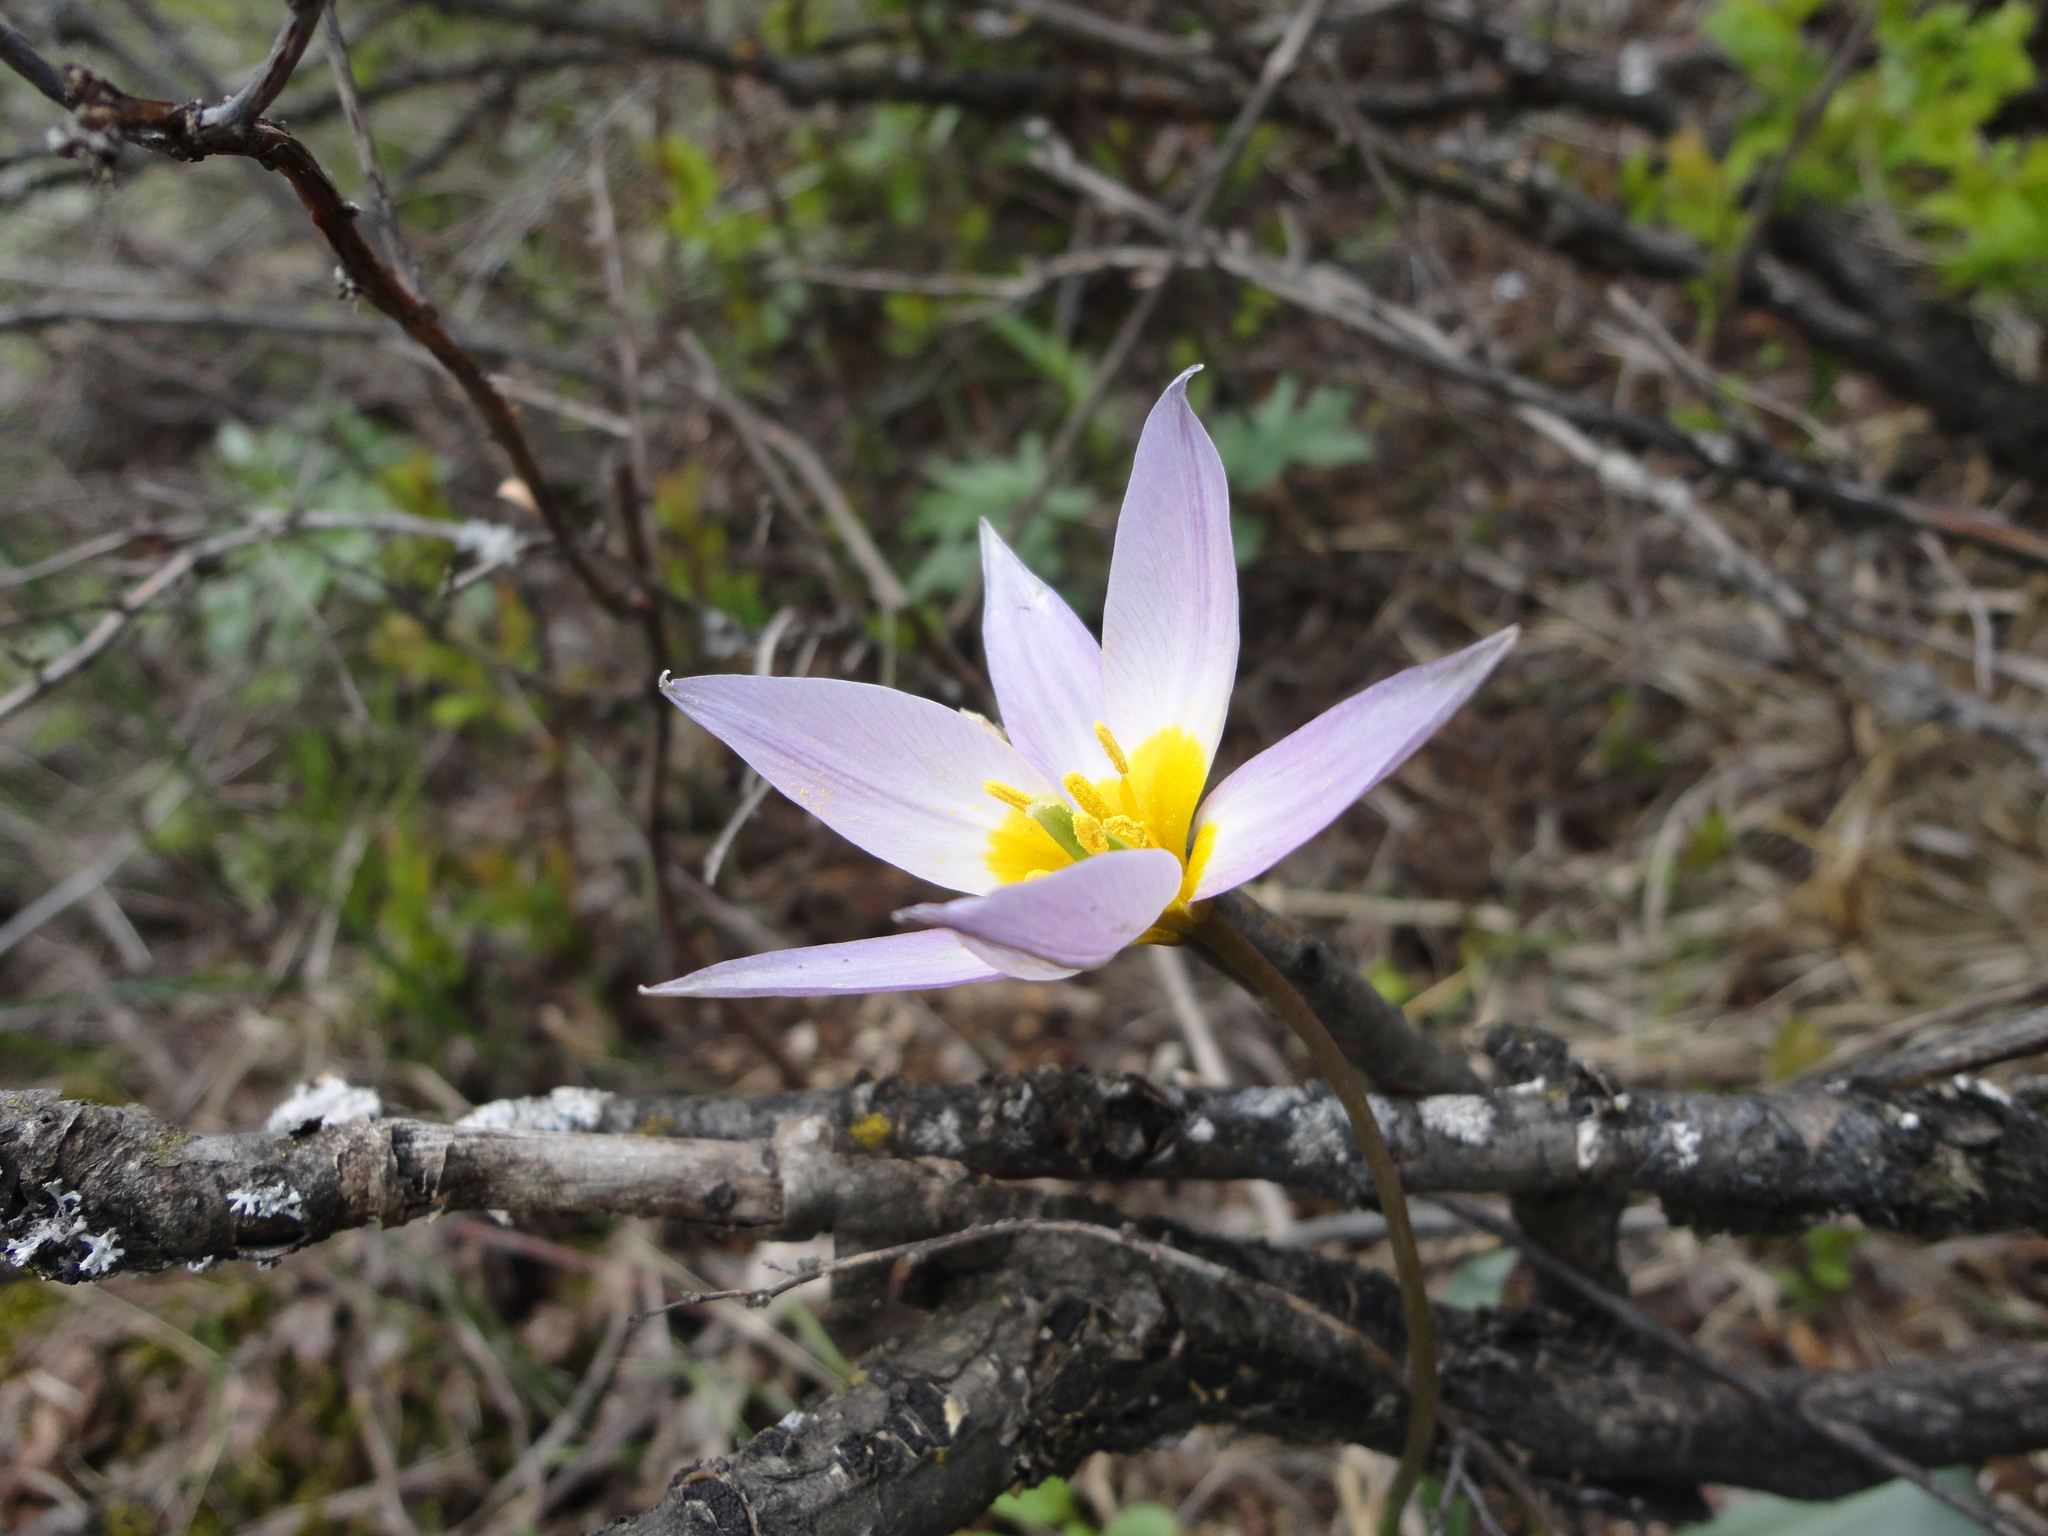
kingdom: Plantae
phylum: Tracheophyta
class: Liliopsida
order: Liliales
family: Liliaceae
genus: Tulipa
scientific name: Tulipa patens
